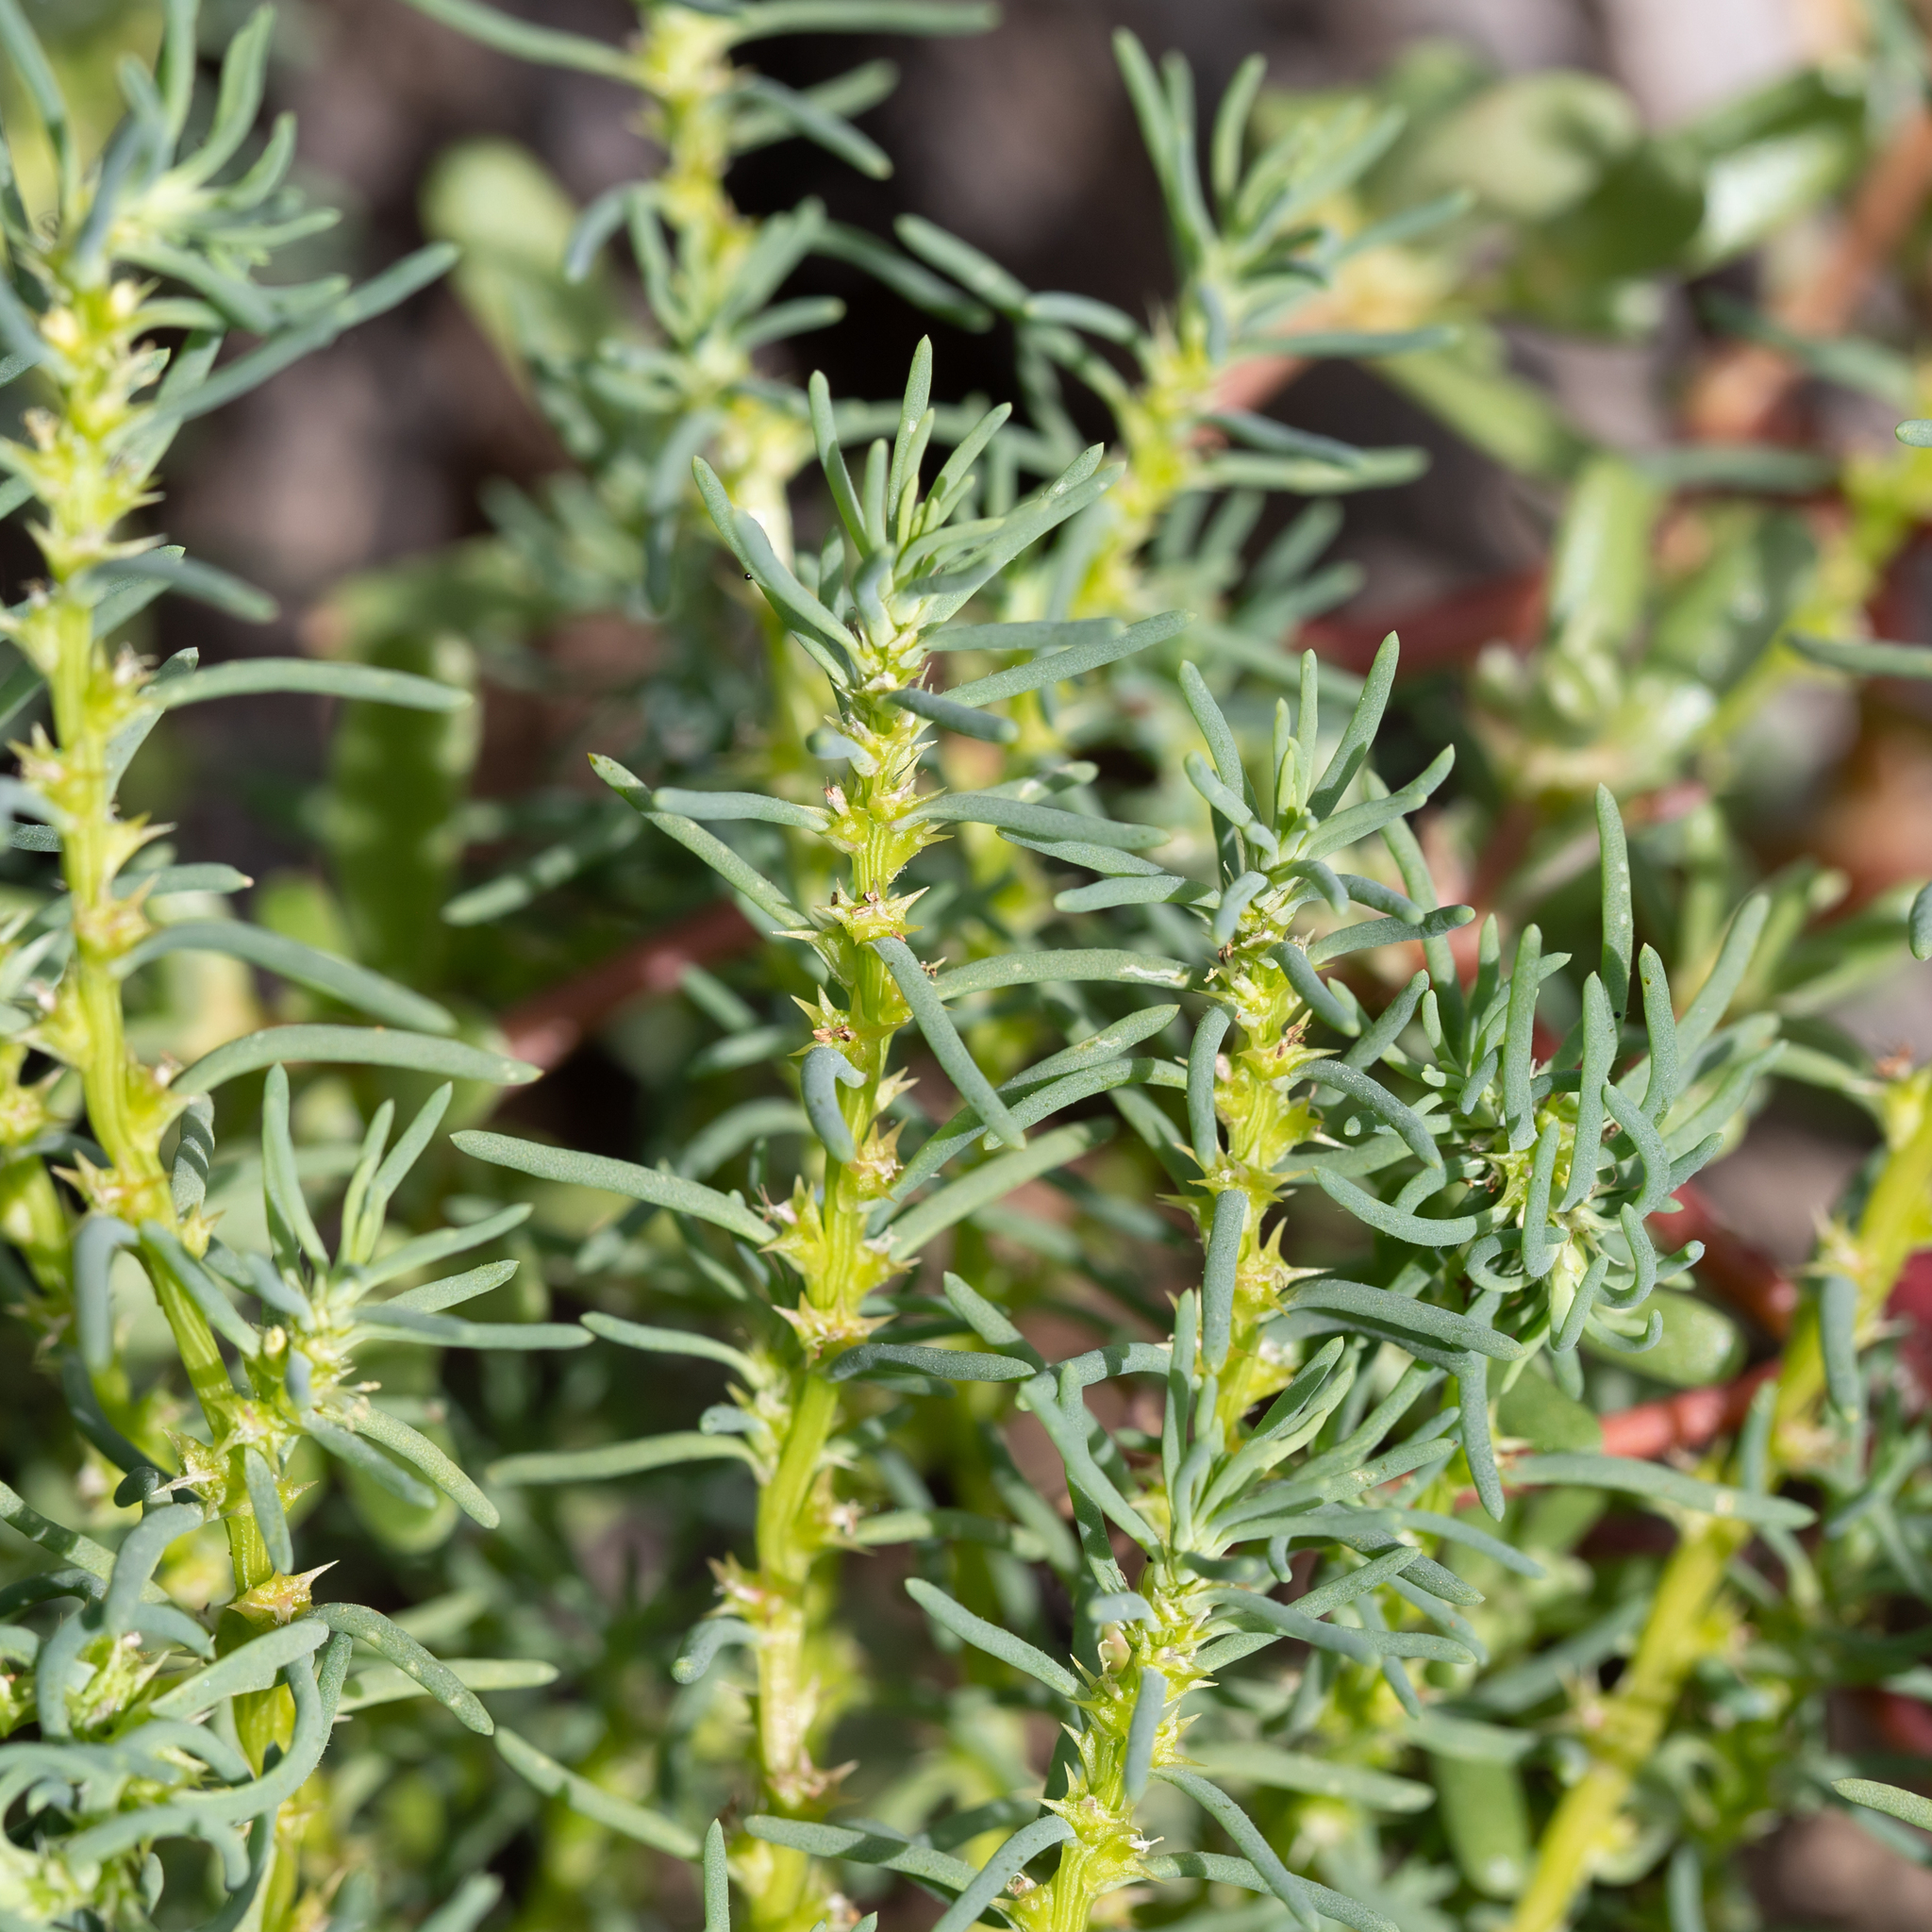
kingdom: Plantae
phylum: Tracheophyta
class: Magnoliopsida
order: Caryophyllales
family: Amaranthaceae
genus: Sclerolaena
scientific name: Sclerolaena calcarata
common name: Red copperbur
